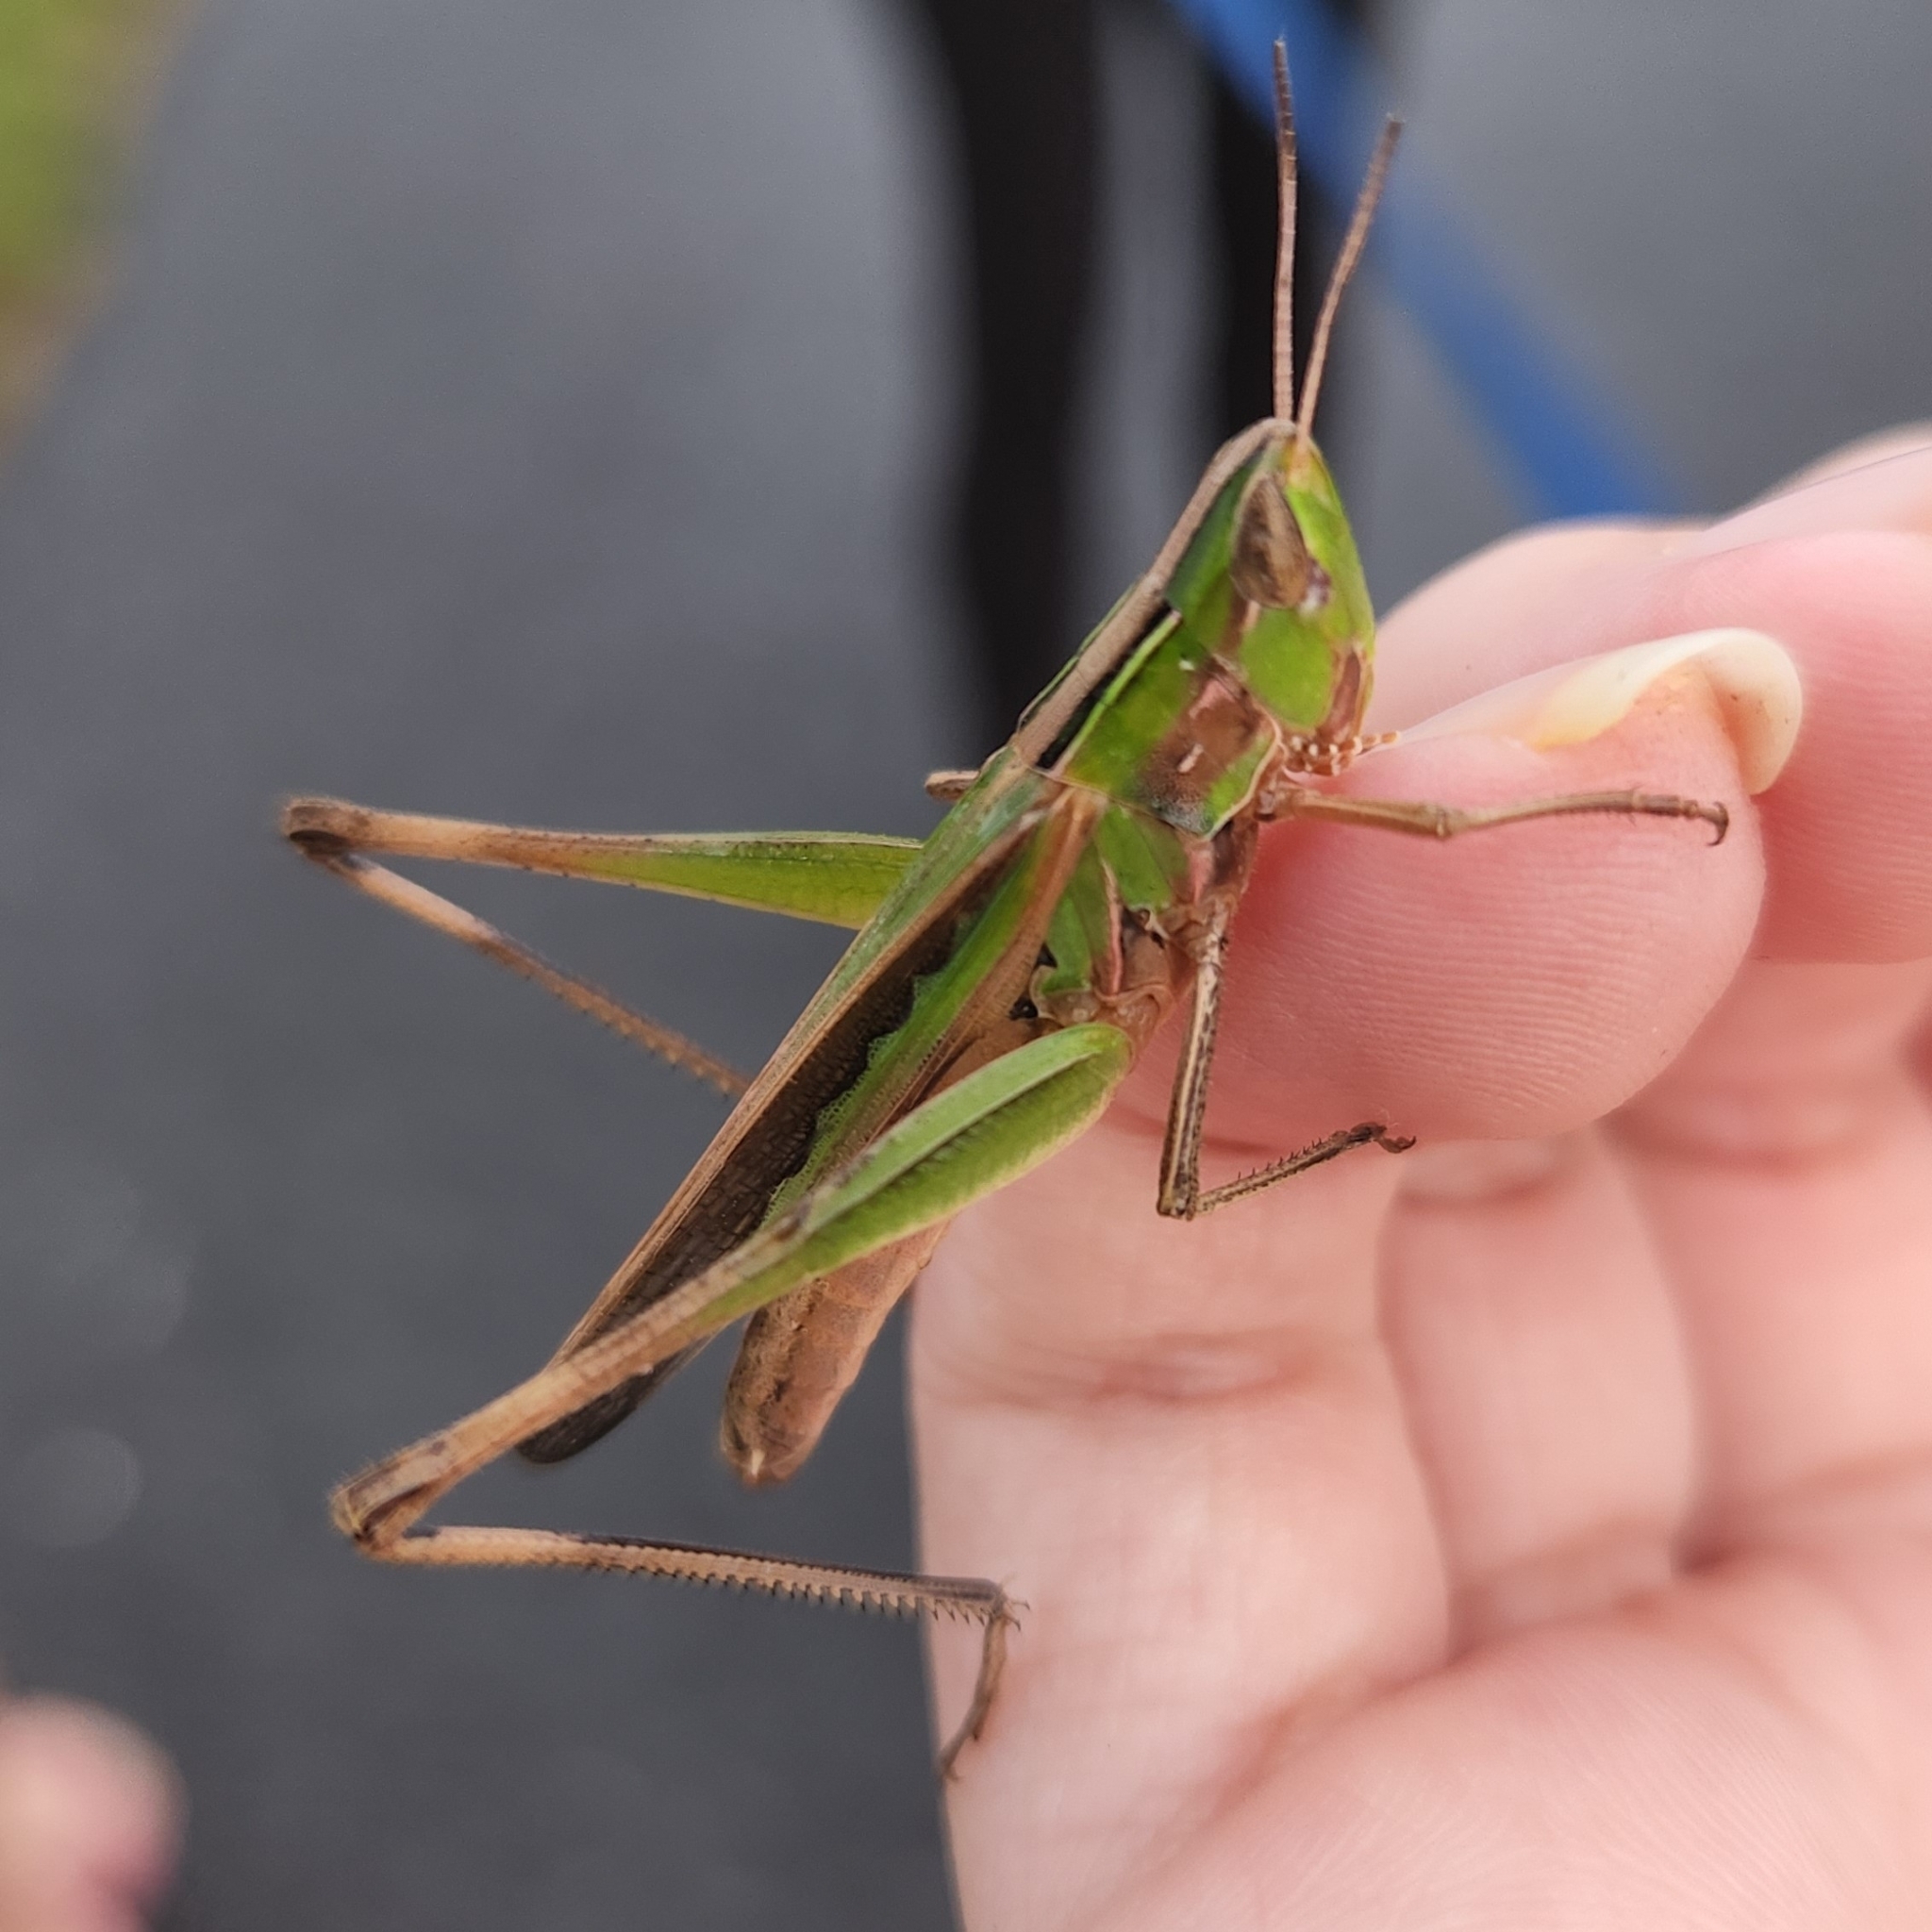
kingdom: Animalia
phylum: Arthropoda
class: Insecta
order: Orthoptera
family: Acrididae
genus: Syrbula
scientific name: Syrbula admirabilis
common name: Handsome grasshopper
